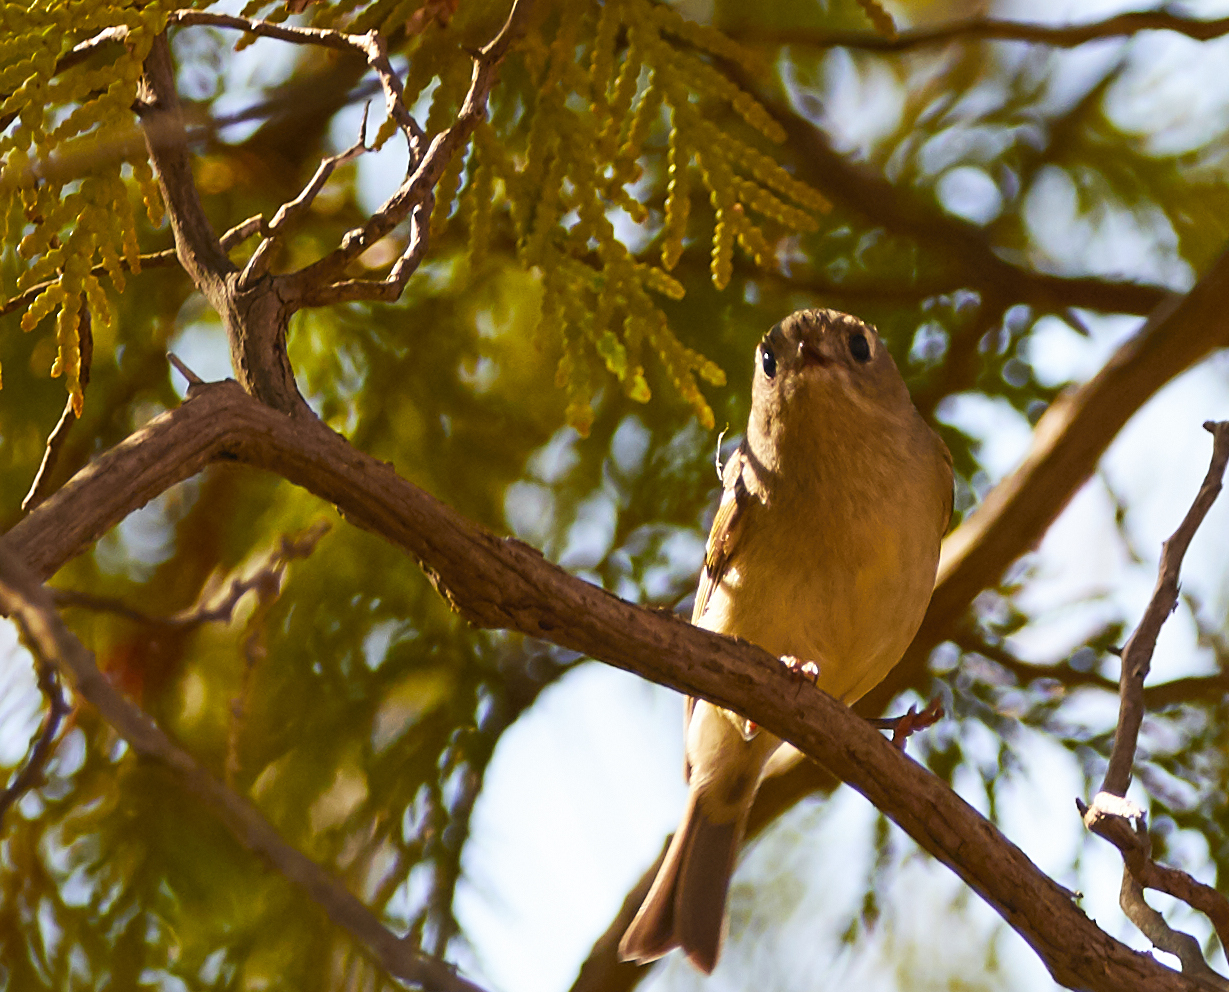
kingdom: Animalia
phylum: Chordata
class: Aves
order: Passeriformes
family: Regulidae
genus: Regulus
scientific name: Regulus calendula
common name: Ruby-crowned kinglet
